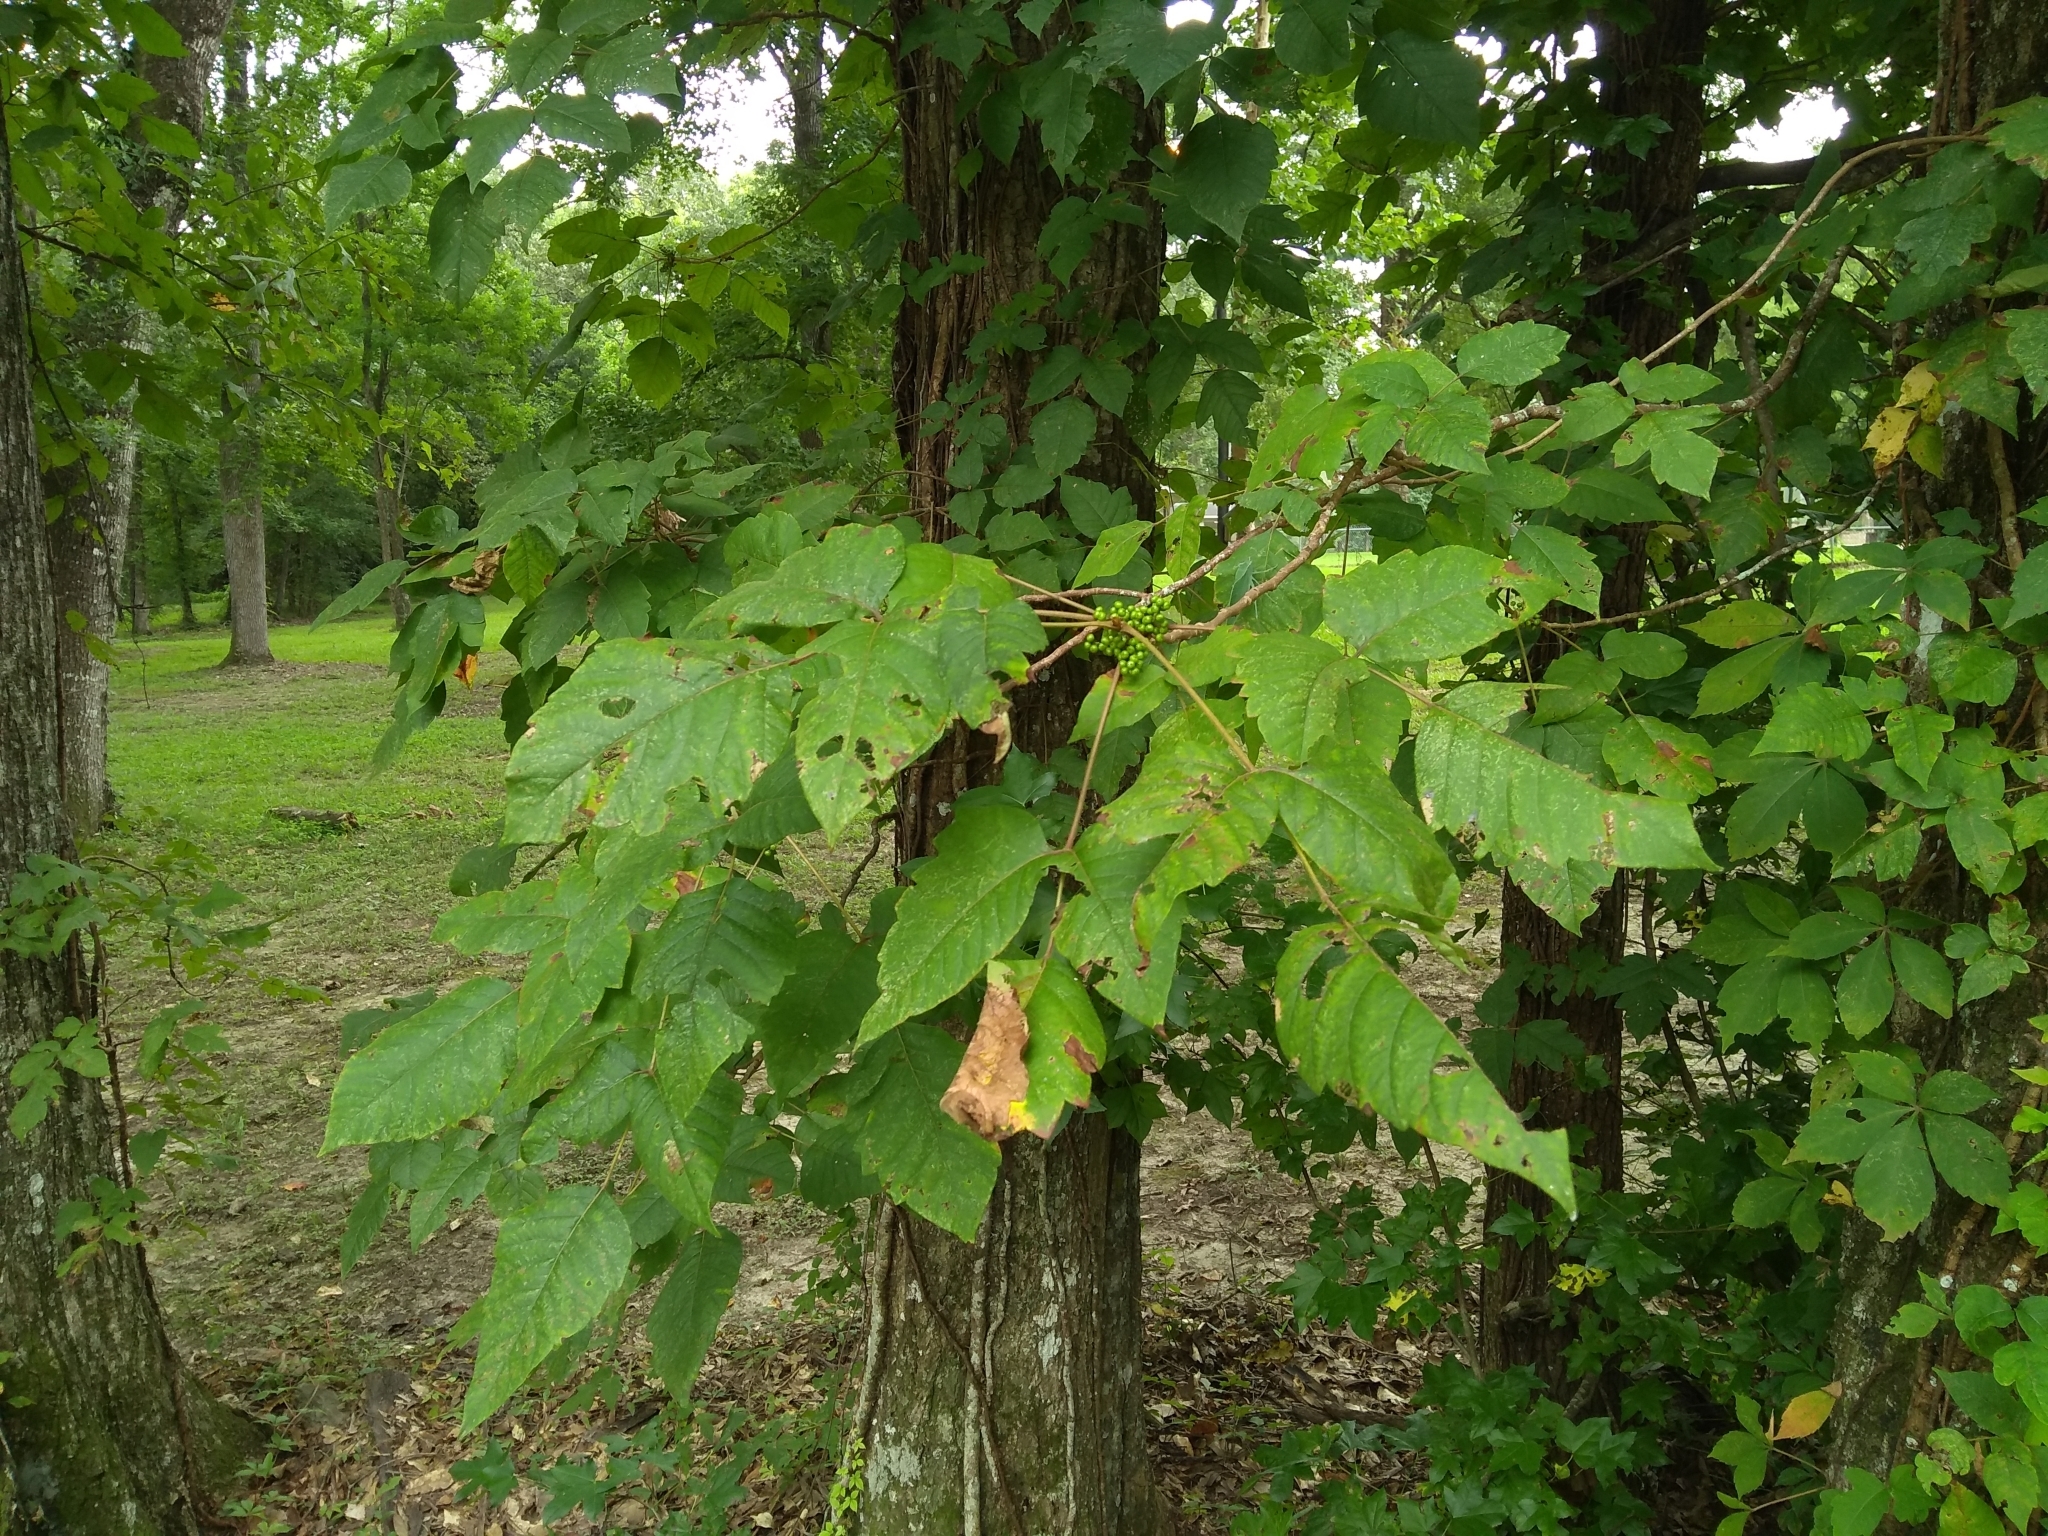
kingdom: Plantae
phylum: Tracheophyta
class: Magnoliopsida
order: Sapindales
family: Anacardiaceae
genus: Toxicodendron
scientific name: Toxicodendron radicans
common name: Poison ivy
